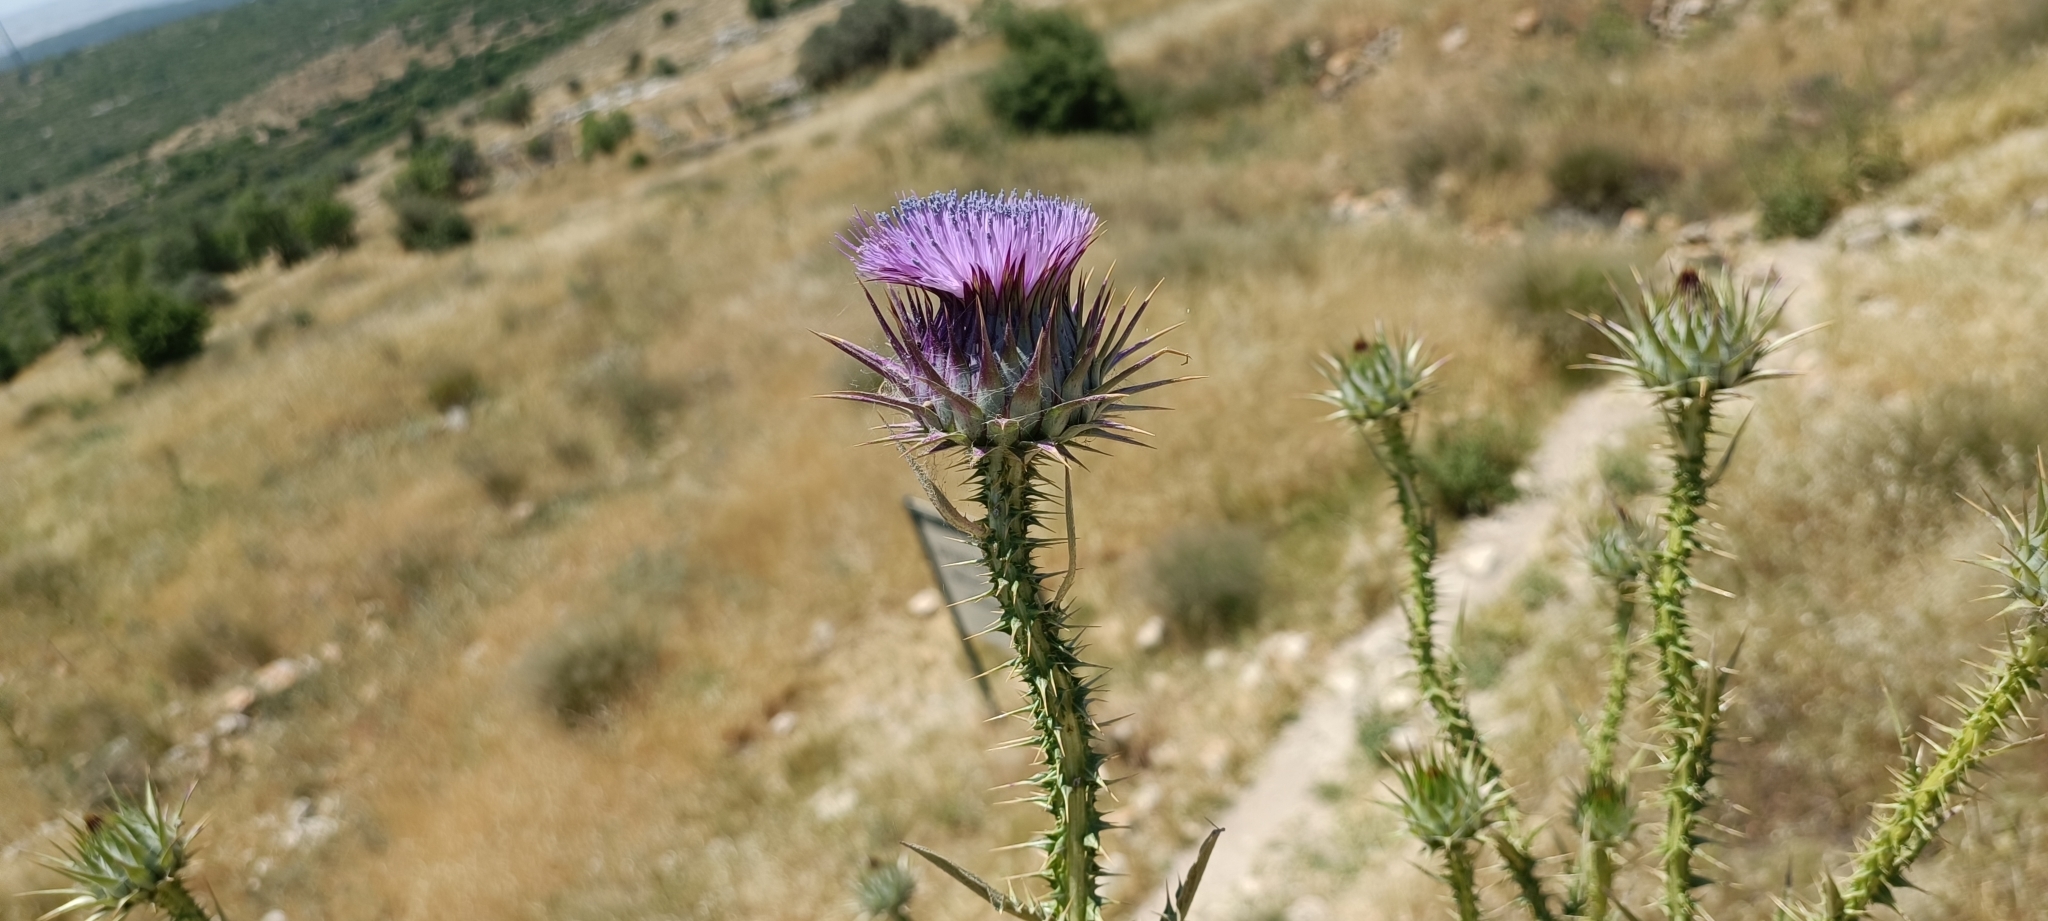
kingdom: Plantae
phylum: Tracheophyta
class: Magnoliopsida
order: Asterales
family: Asteraceae
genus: Onopordum
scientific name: Onopordum cynarocephalum
